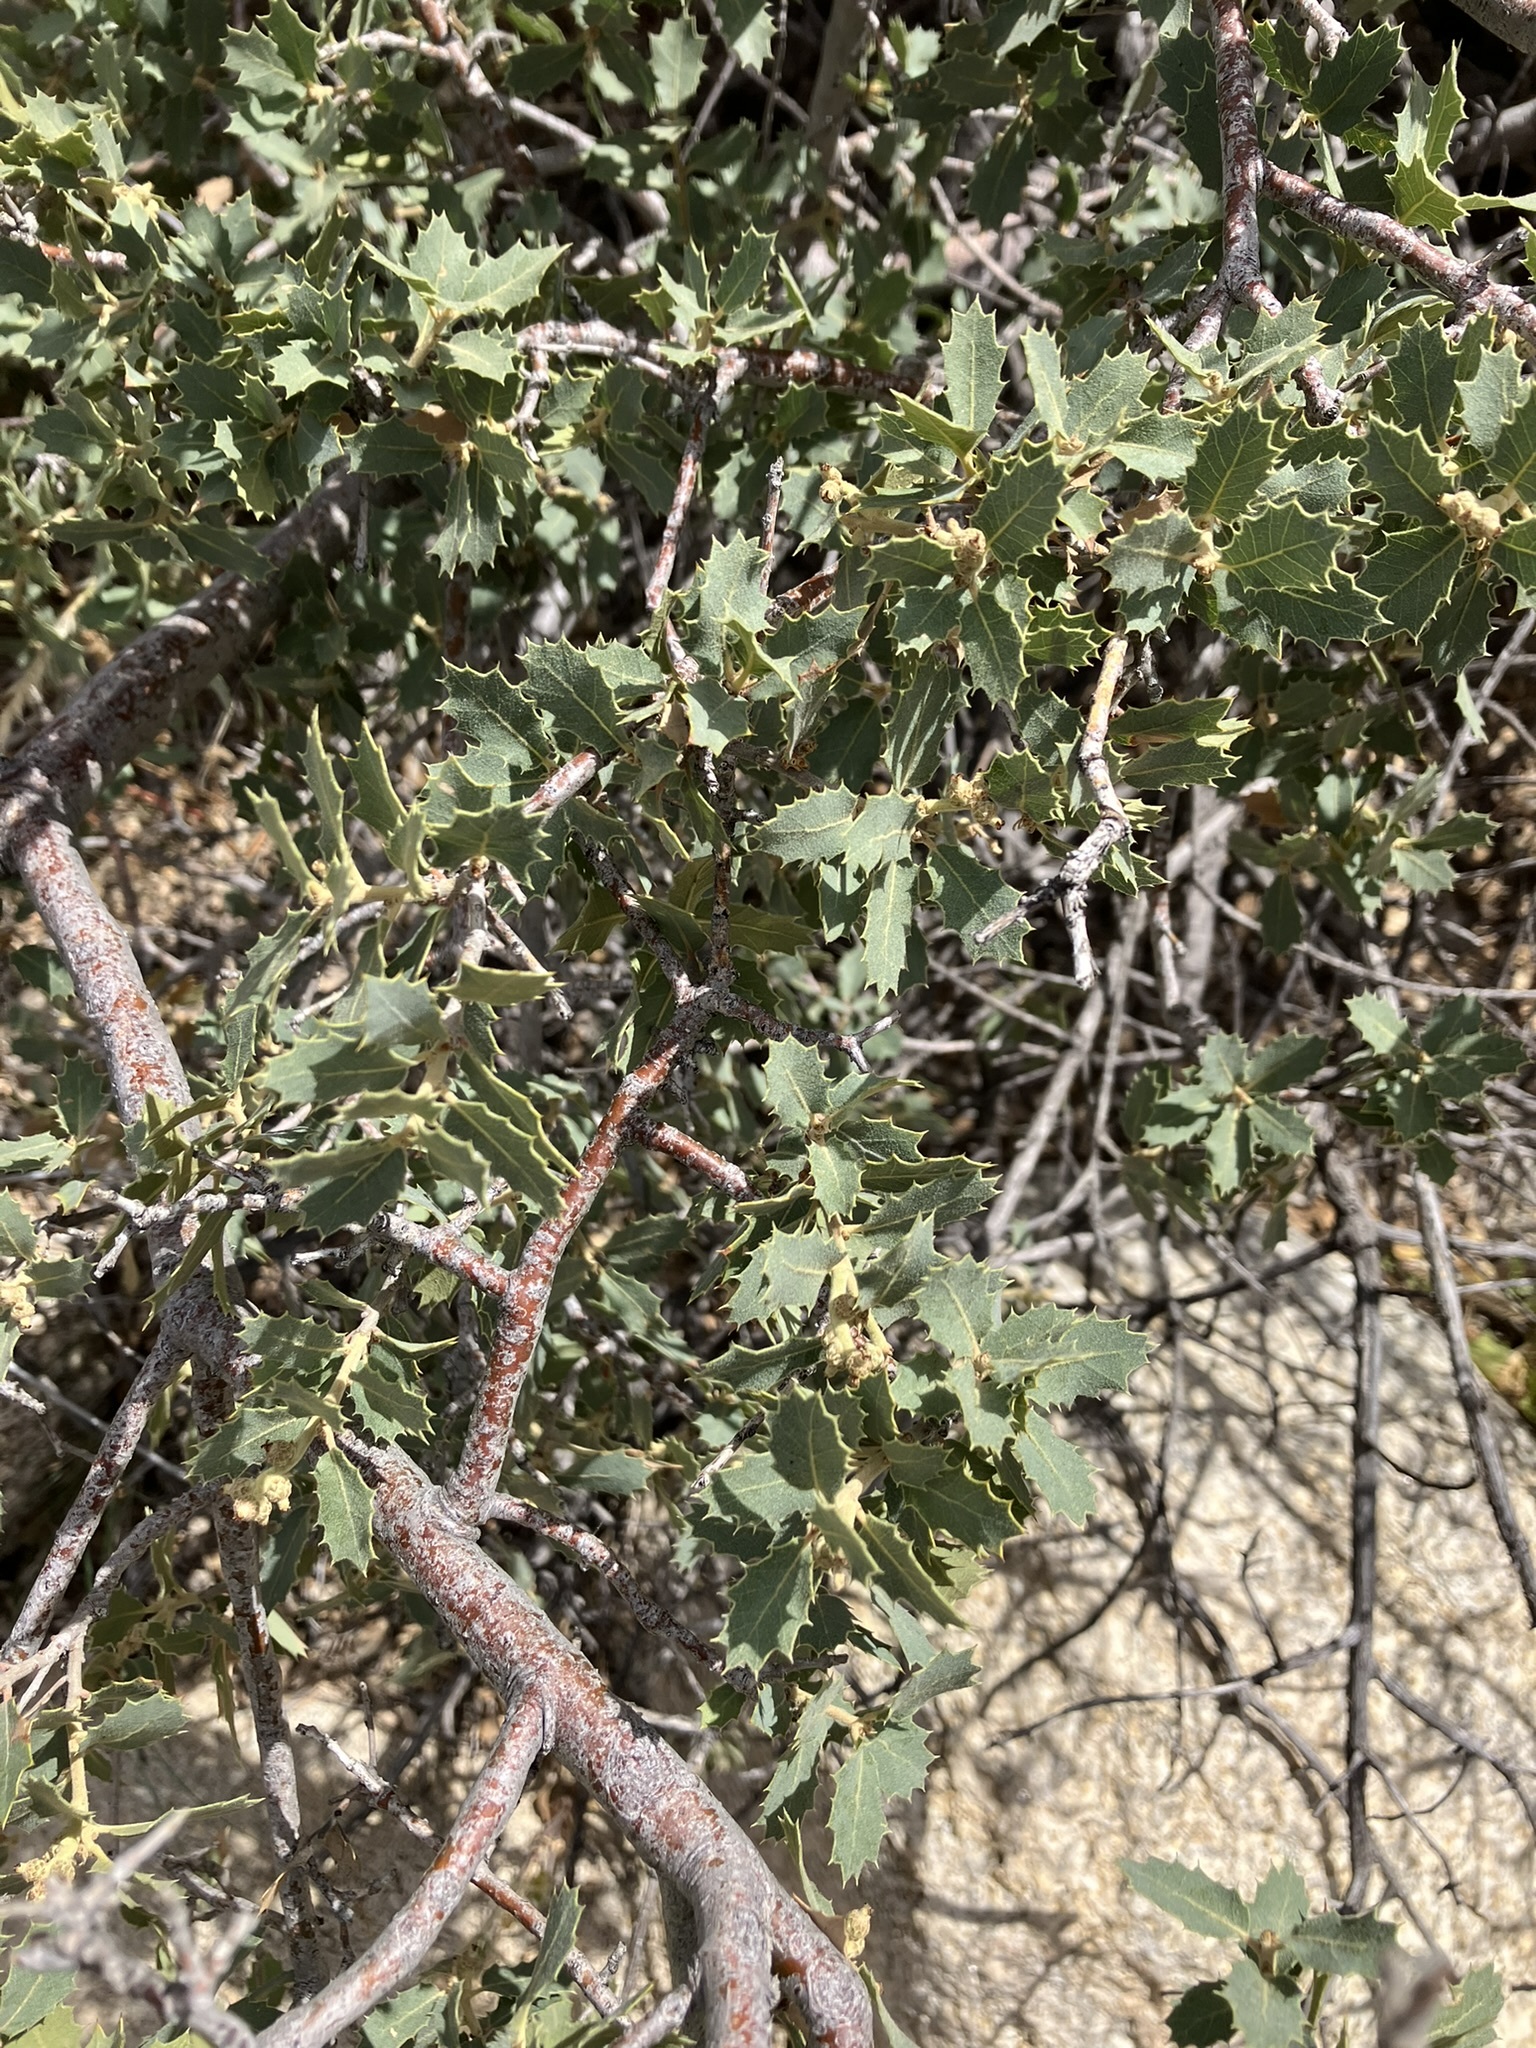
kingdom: Plantae
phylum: Tracheophyta
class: Magnoliopsida
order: Fagales
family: Fagaceae
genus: Quercus
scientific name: Quercus turbinella
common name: Sonoran scrub oak
